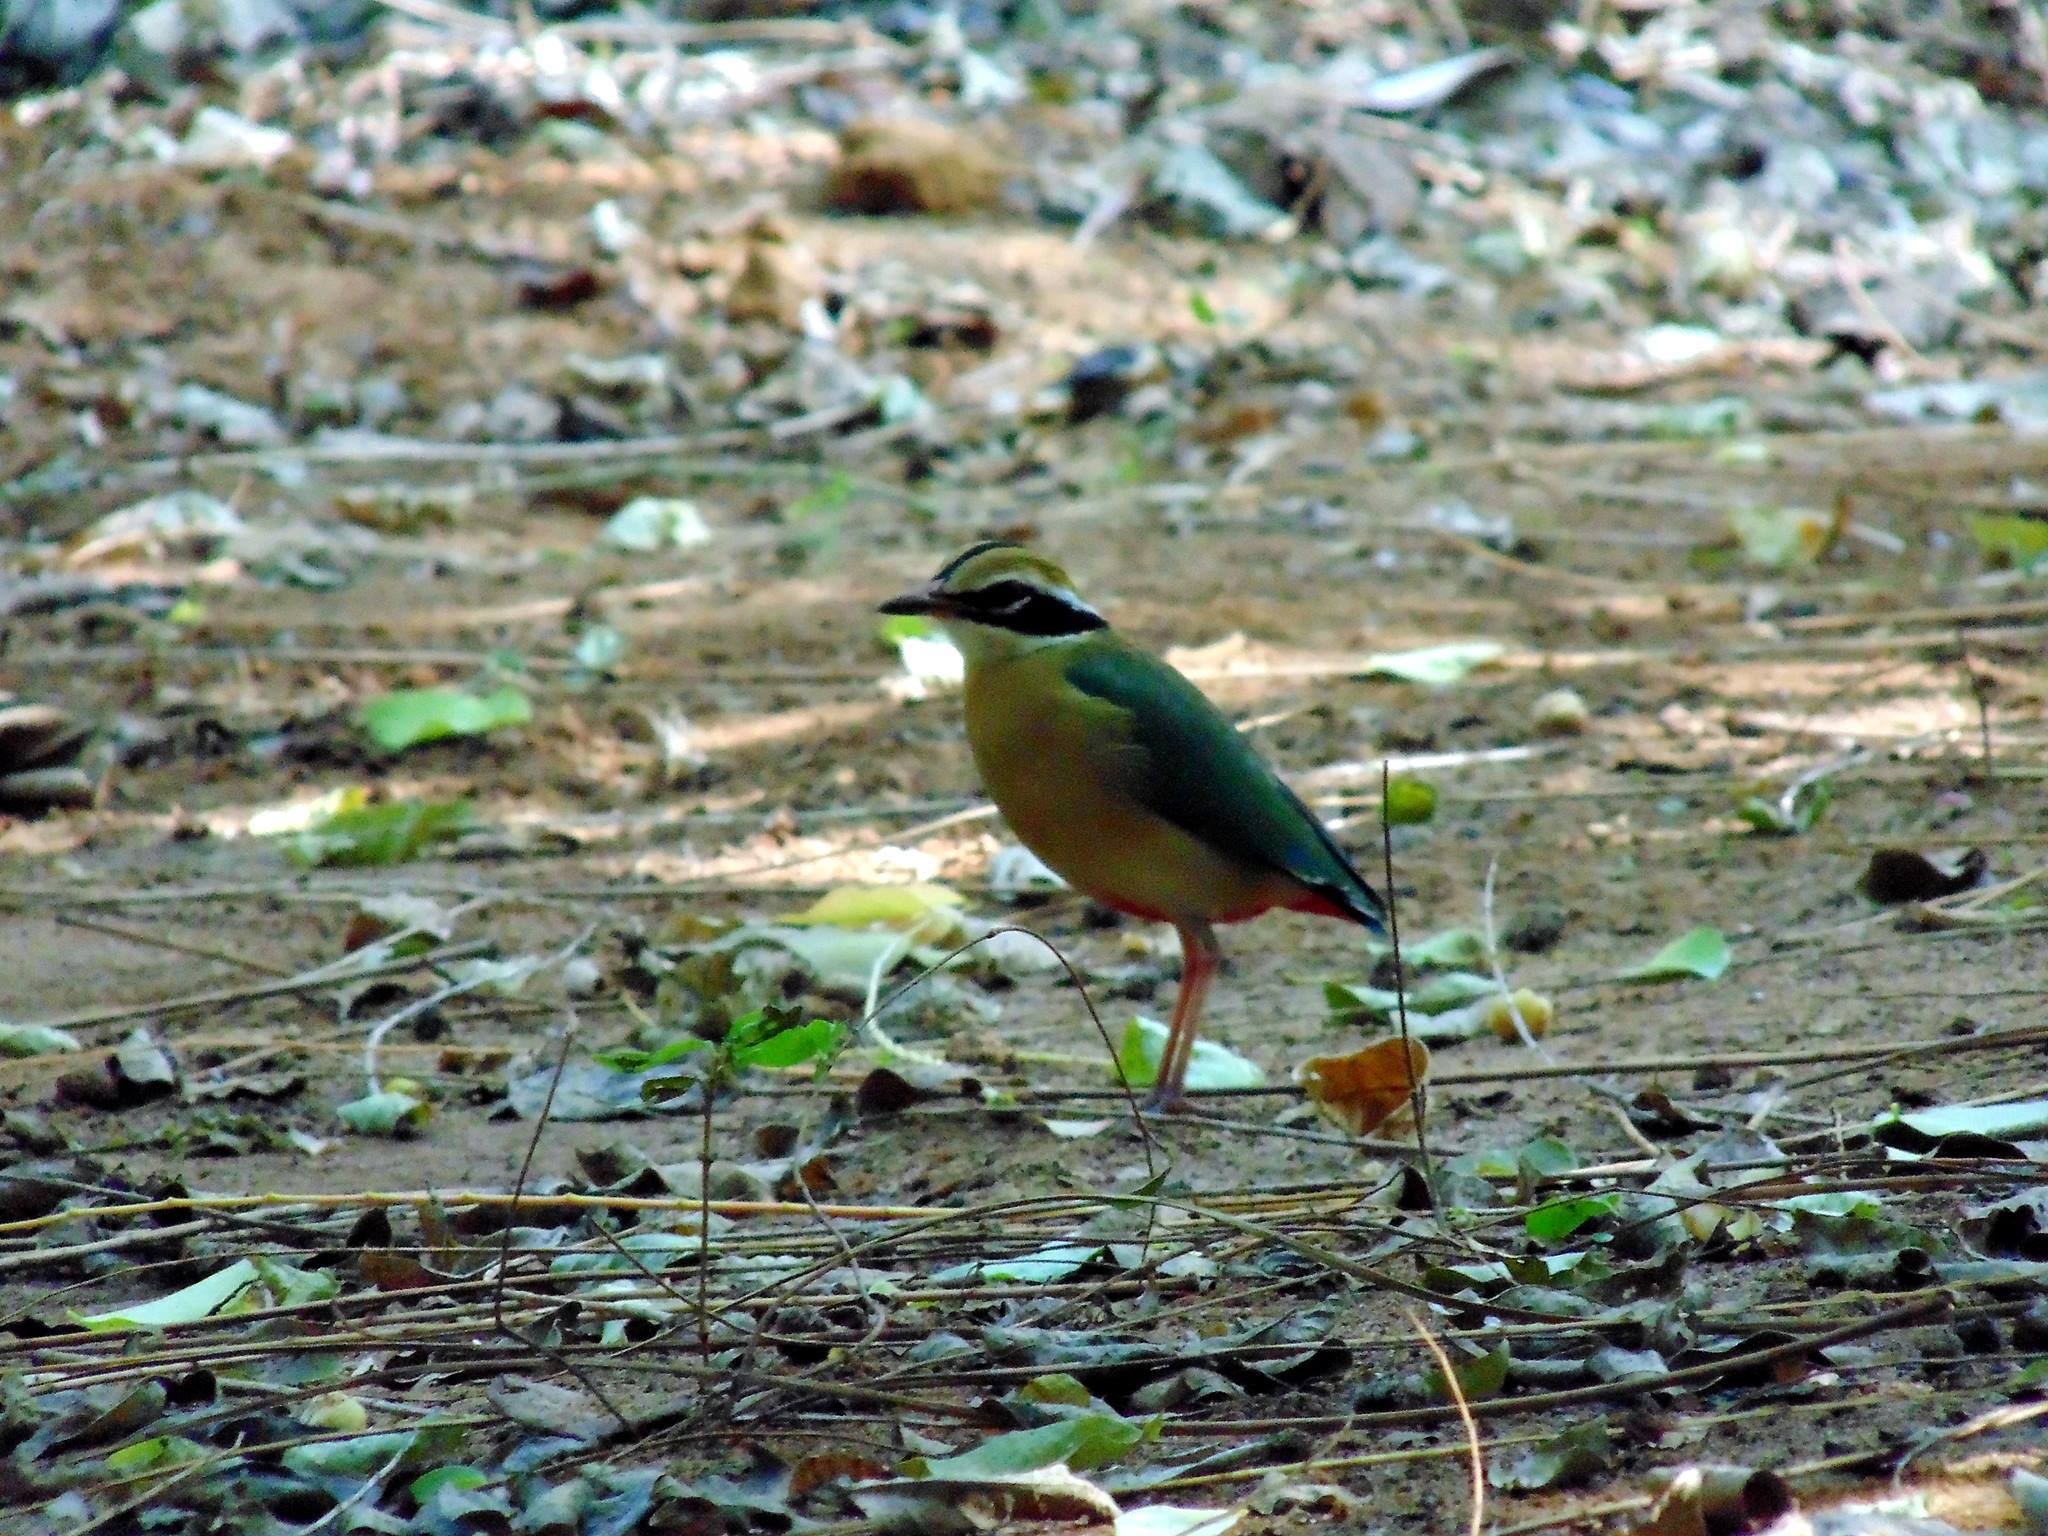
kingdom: Animalia
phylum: Chordata
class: Aves
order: Passeriformes
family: Pittidae
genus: Pitta
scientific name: Pitta brachyura
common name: Indian pitta
